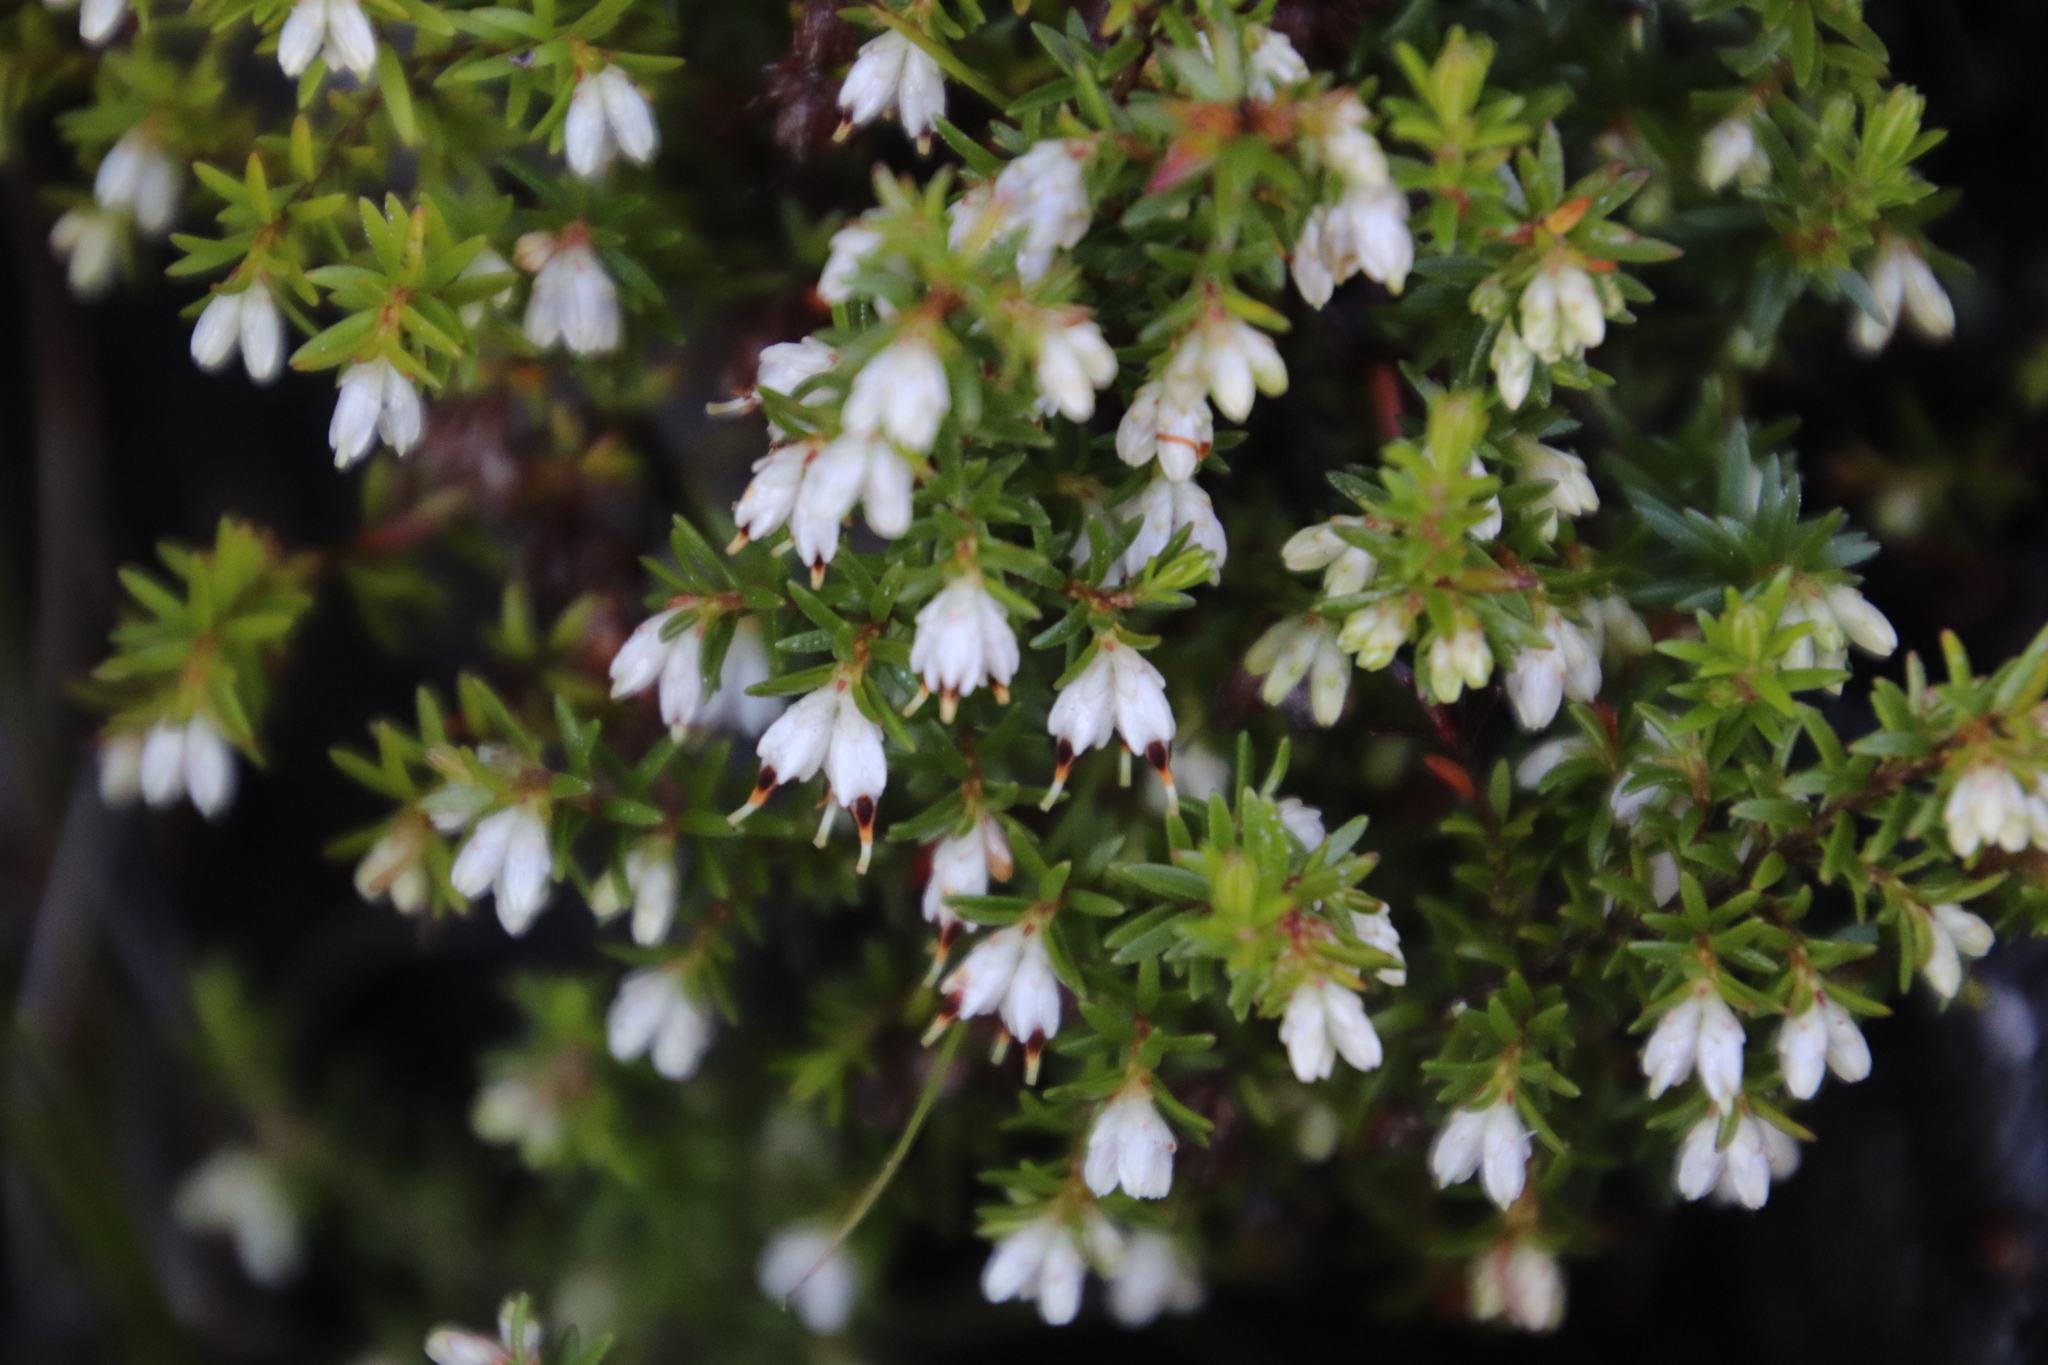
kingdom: Plantae
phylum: Tracheophyta
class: Magnoliopsida
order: Ericales
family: Ericaceae
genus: Erica
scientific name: Erica genistifolia
